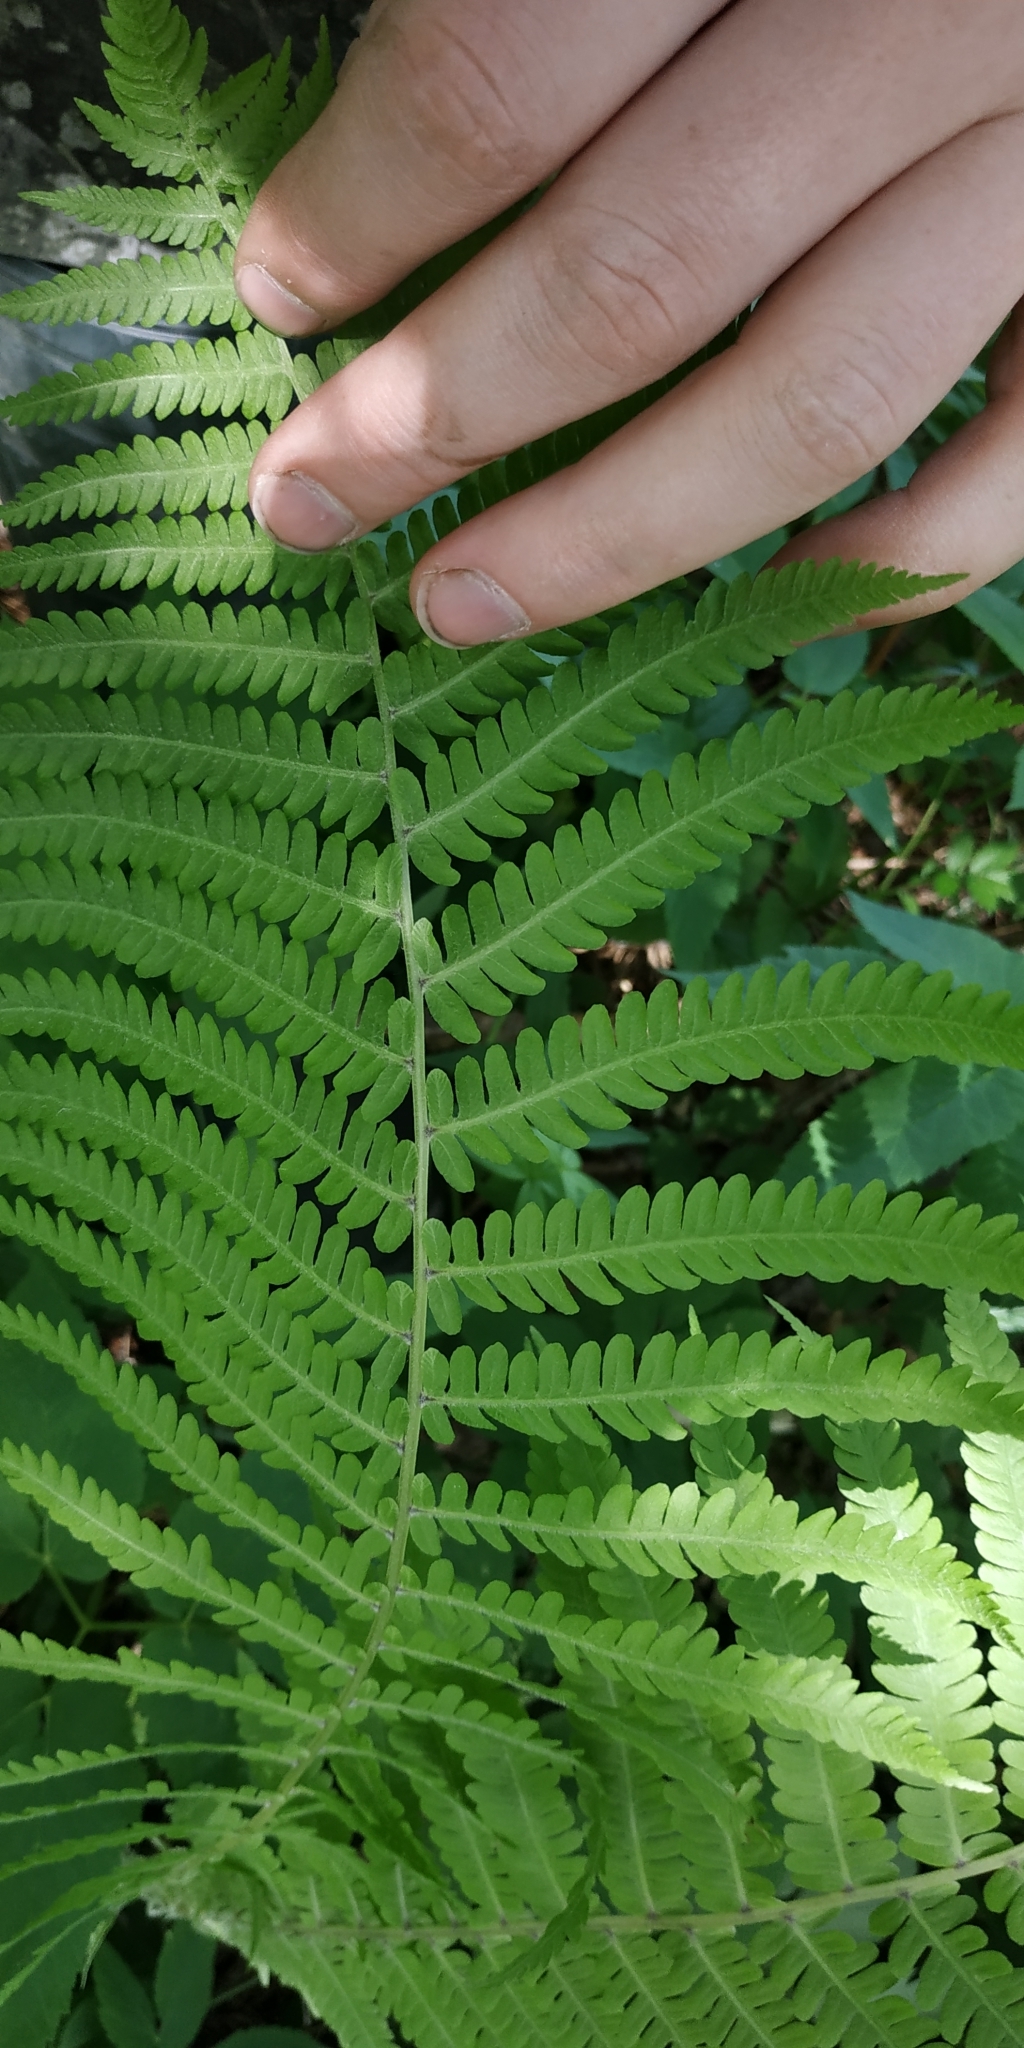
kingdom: Plantae
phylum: Tracheophyta
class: Polypodiopsida
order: Polypodiales
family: Onocleaceae
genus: Matteuccia
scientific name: Matteuccia struthiopteris
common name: Ostrich fern
